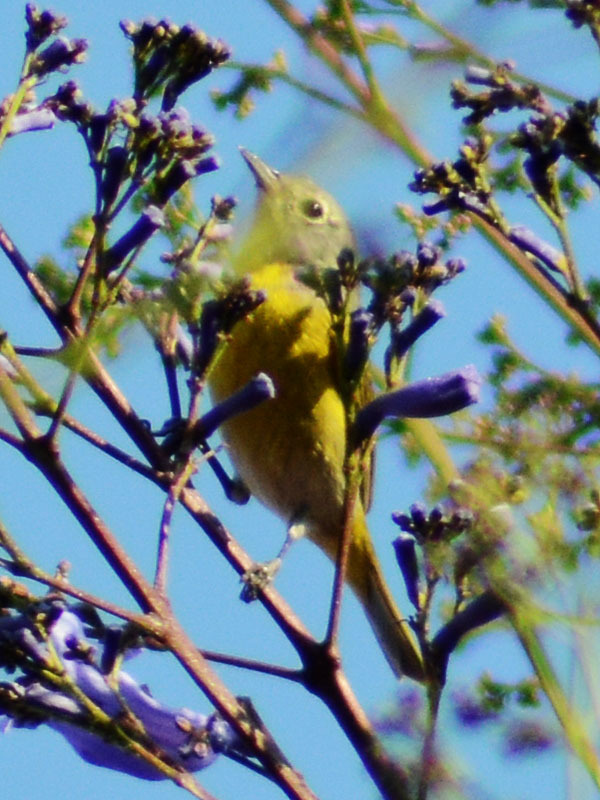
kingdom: Animalia
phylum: Chordata
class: Aves
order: Passeriformes
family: Parulidae
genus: Leiothlypis
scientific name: Leiothlypis ruficapilla
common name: Nashville warbler
